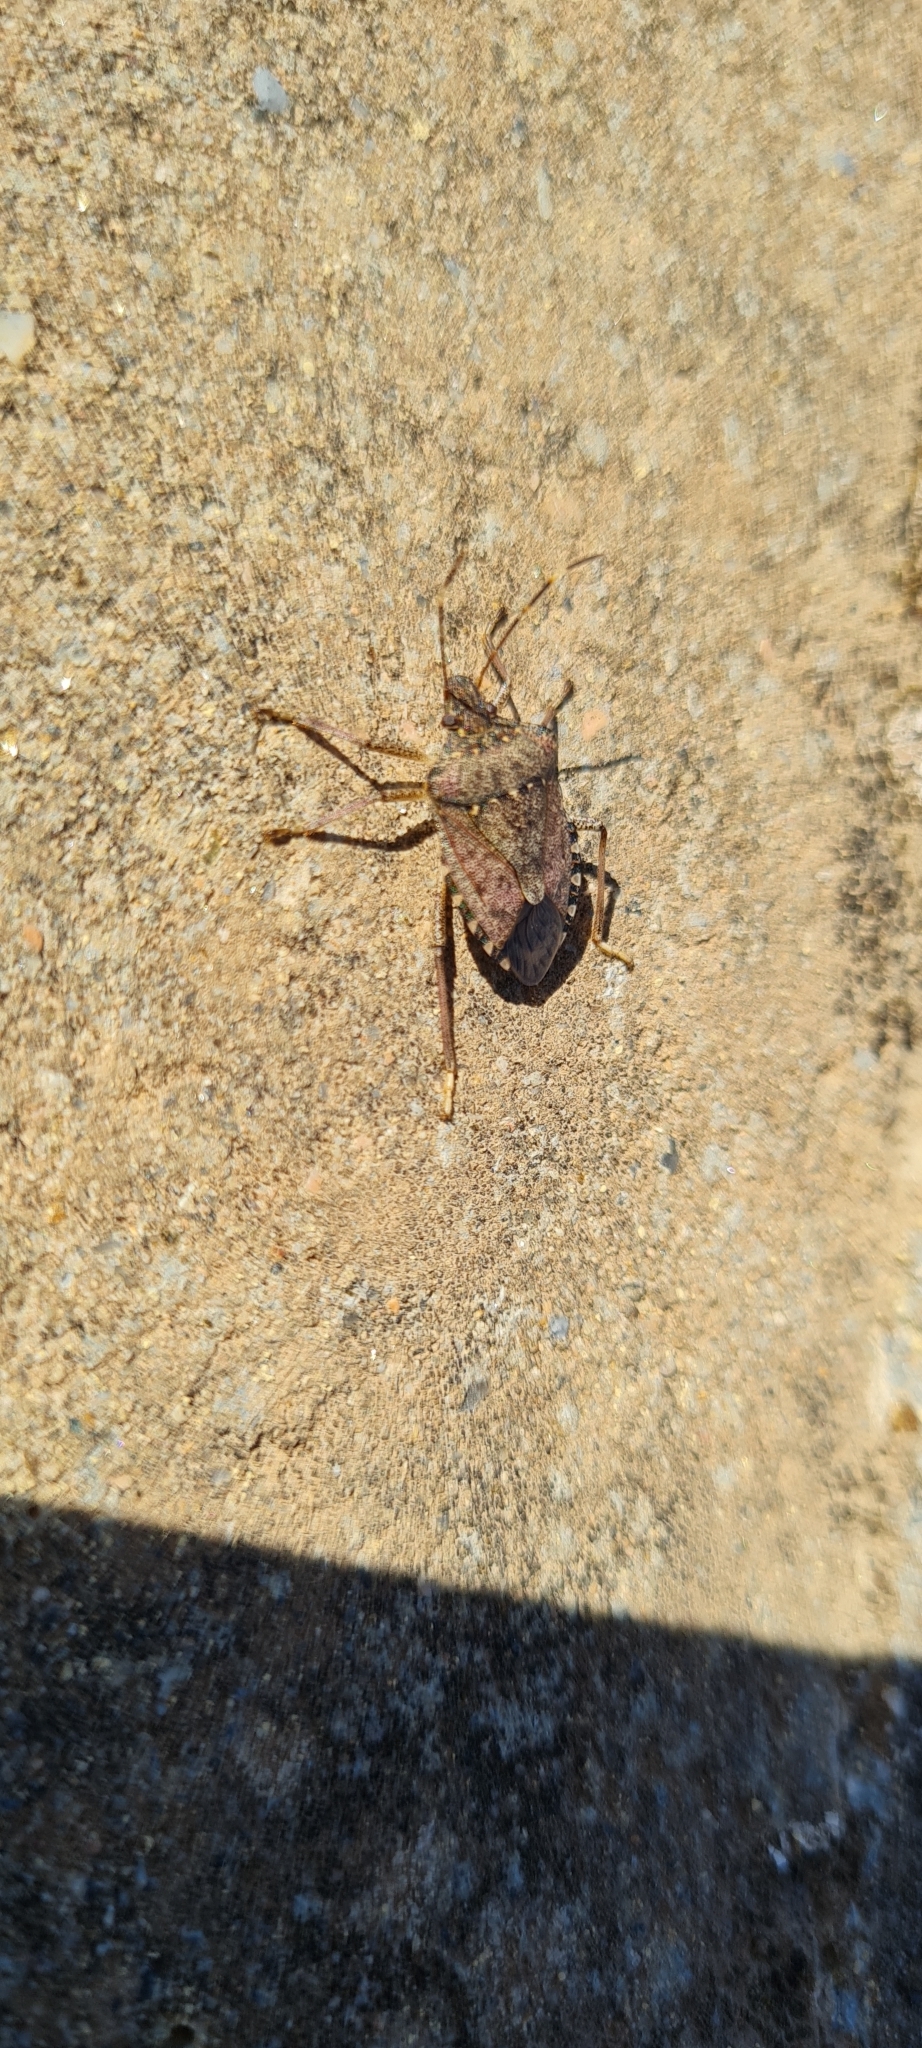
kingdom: Animalia
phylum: Arthropoda
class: Insecta
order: Hemiptera
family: Pentatomidae
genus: Halyomorpha
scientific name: Halyomorpha halys
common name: Brown marmorated stink bug
